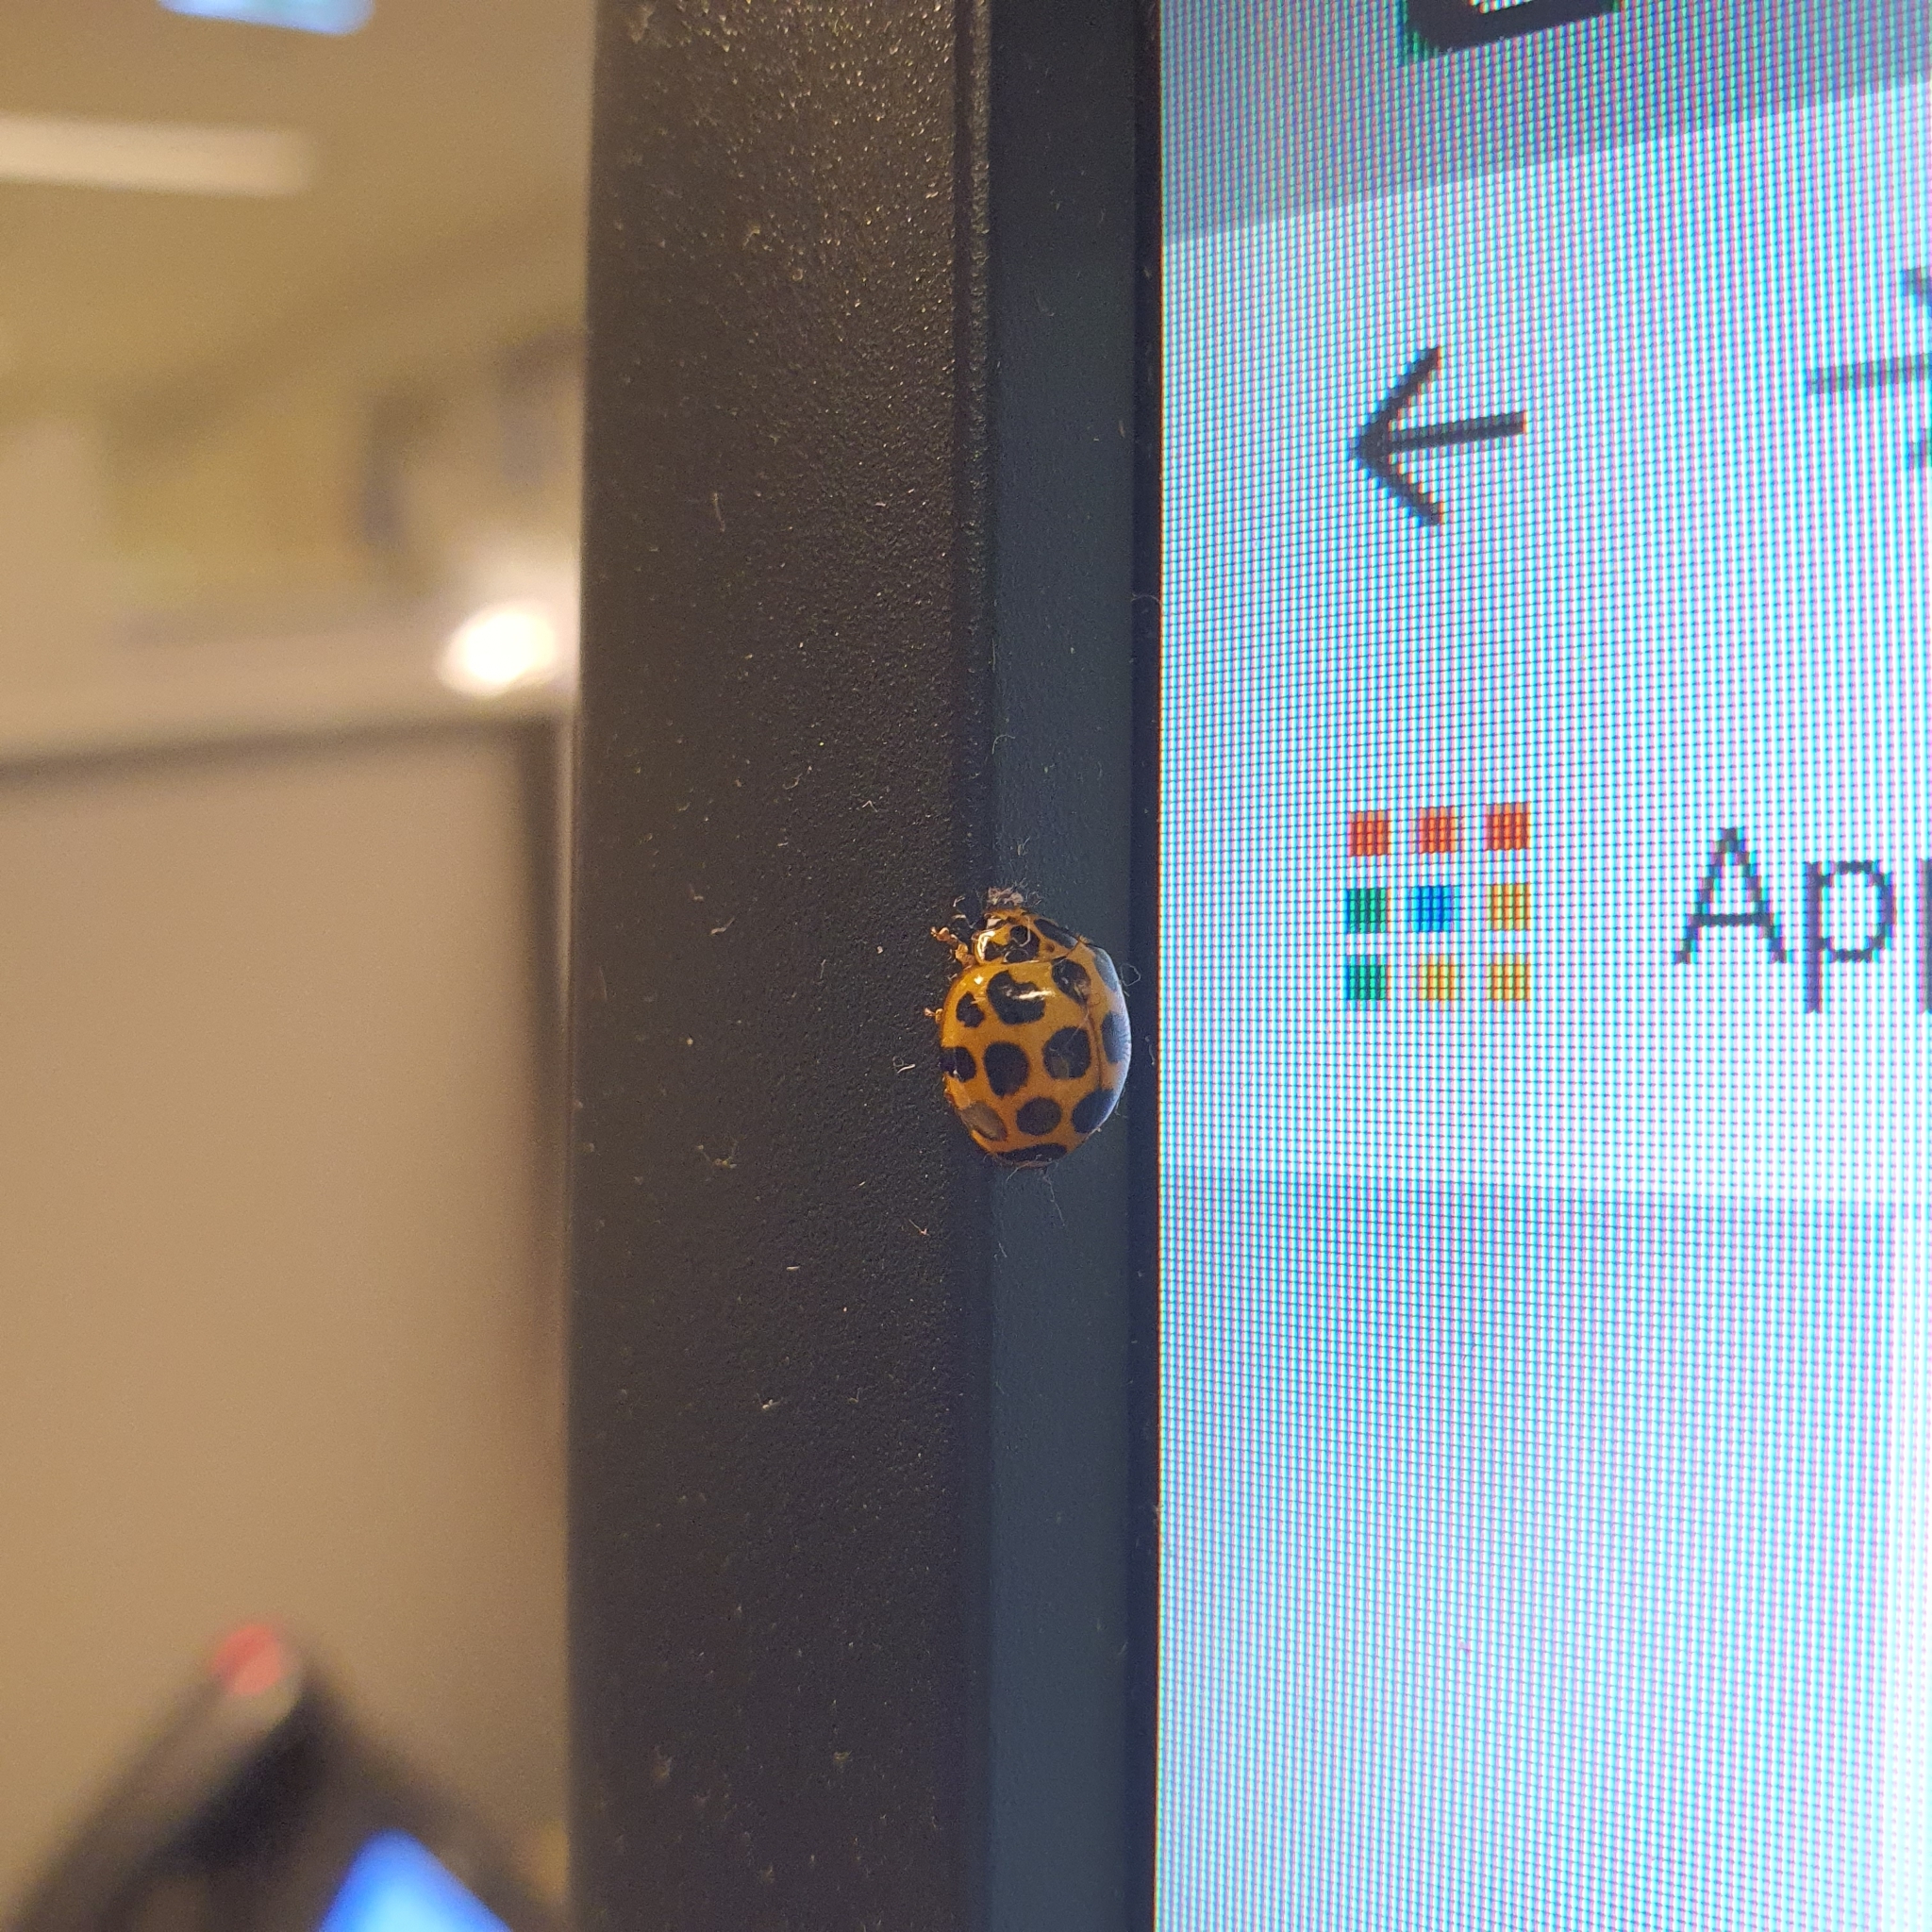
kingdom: Animalia
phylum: Arthropoda
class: Insecta
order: Coleoptera
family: Coccinellidae
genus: Harmonia
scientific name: Harmonia conformis
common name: Common spotted ladybird beetle
